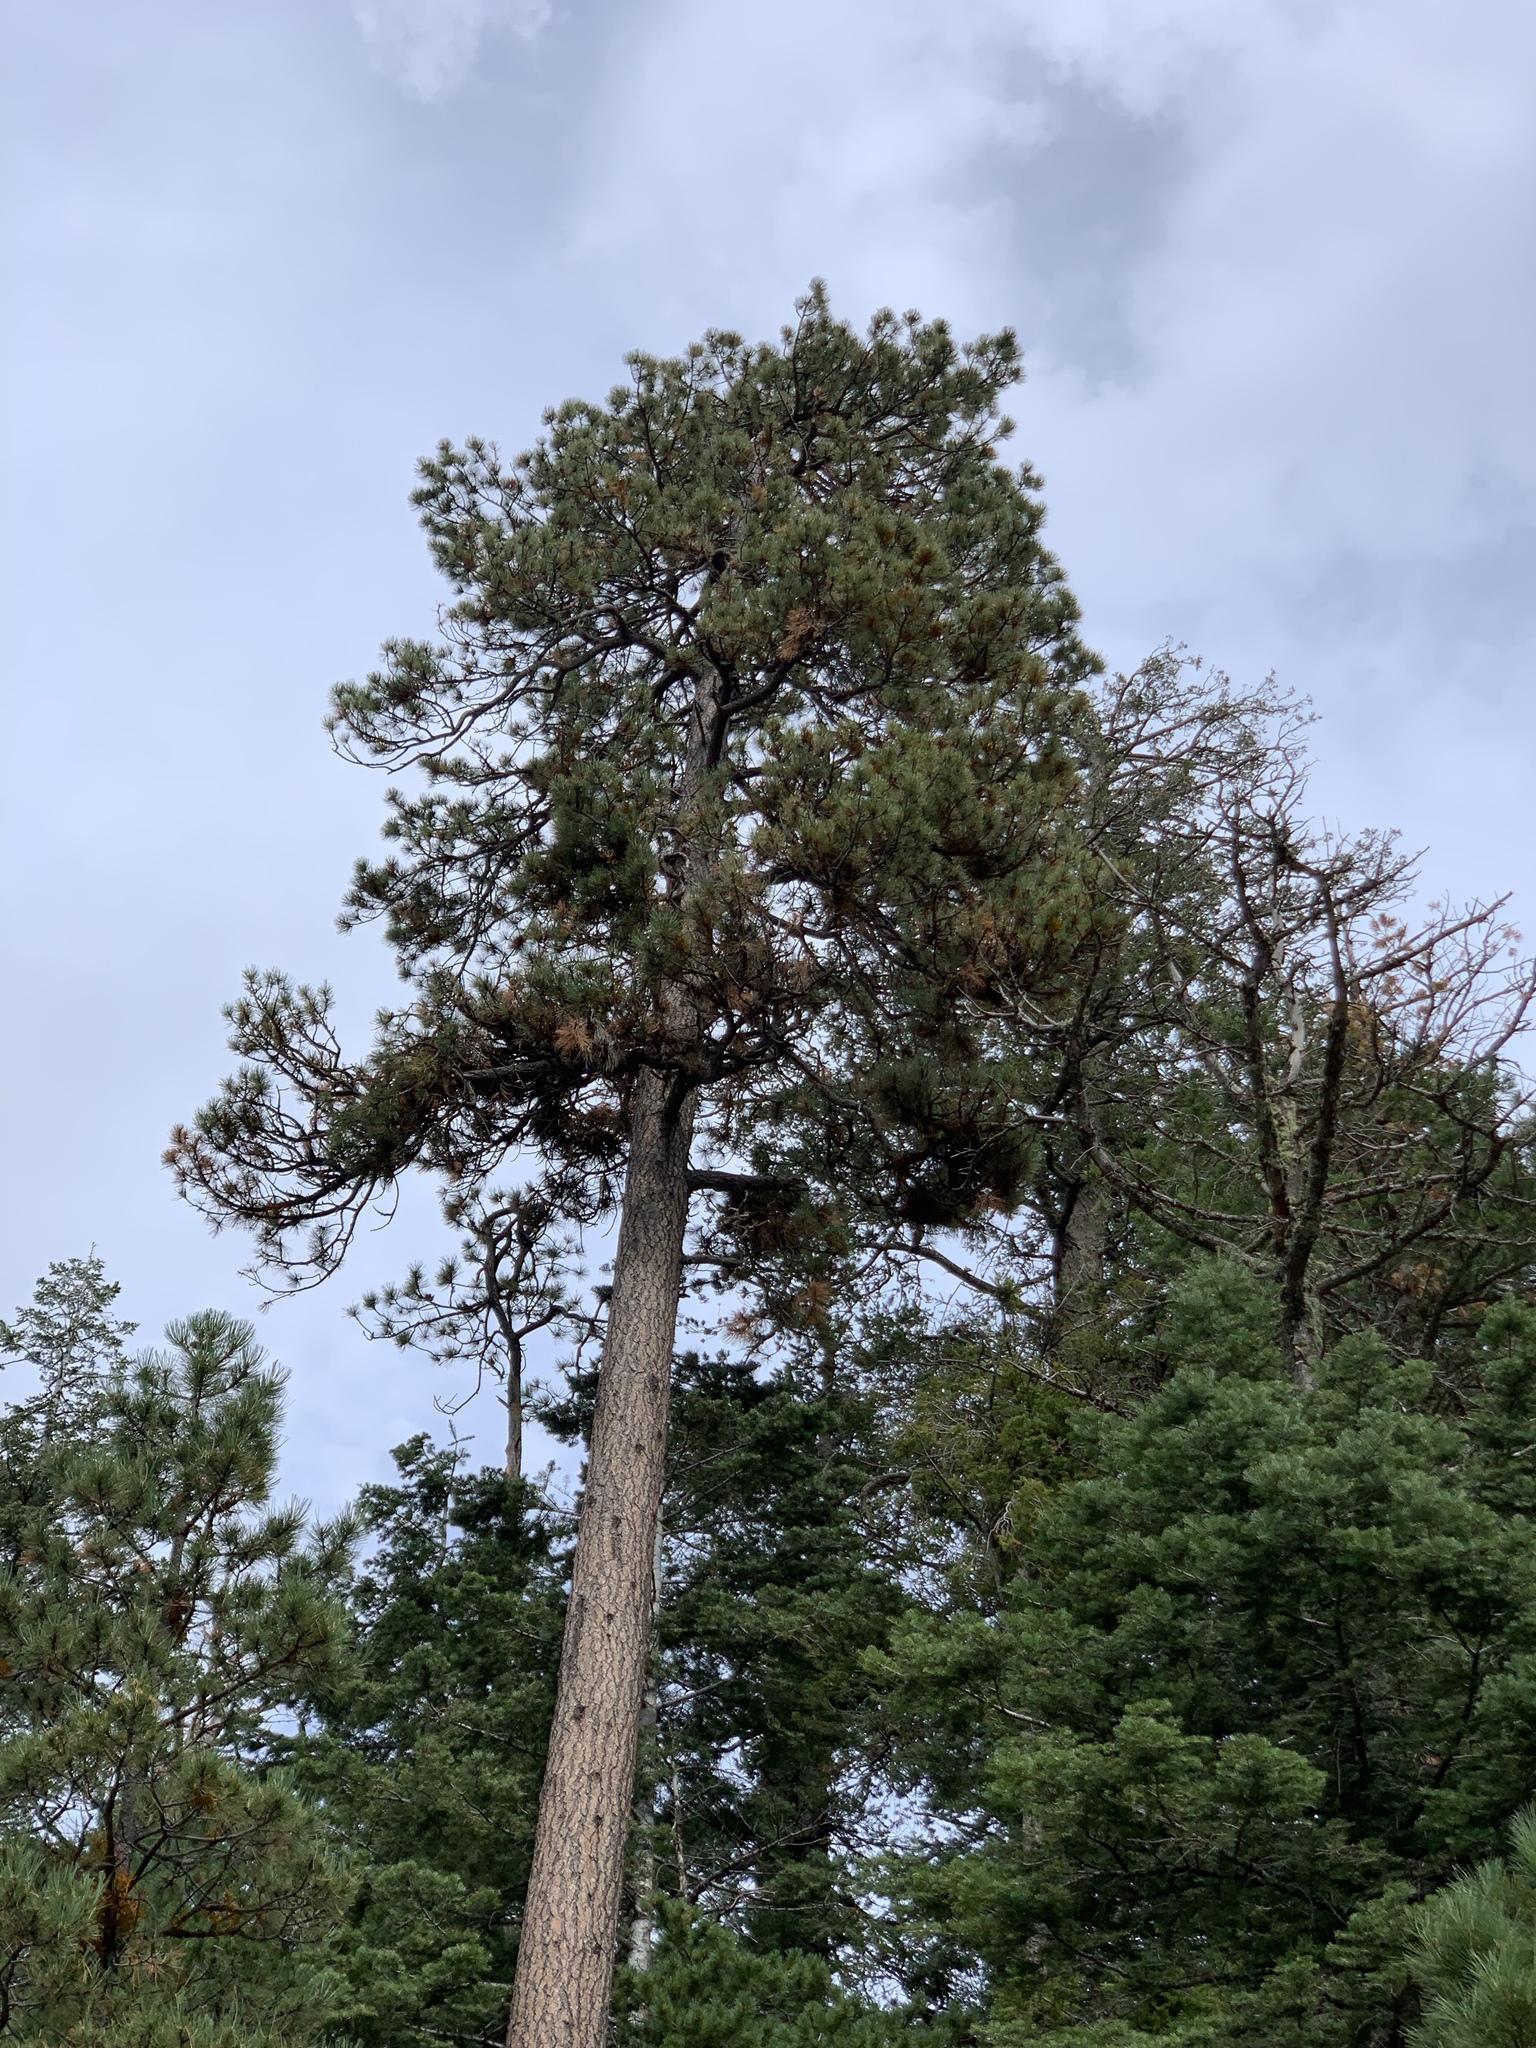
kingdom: Plantae
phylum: Tracheophyta
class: Pinopsida
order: Pinales
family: Pinaceae
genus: Pinus
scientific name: Pinus ponderosa
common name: Western yellow-pine
